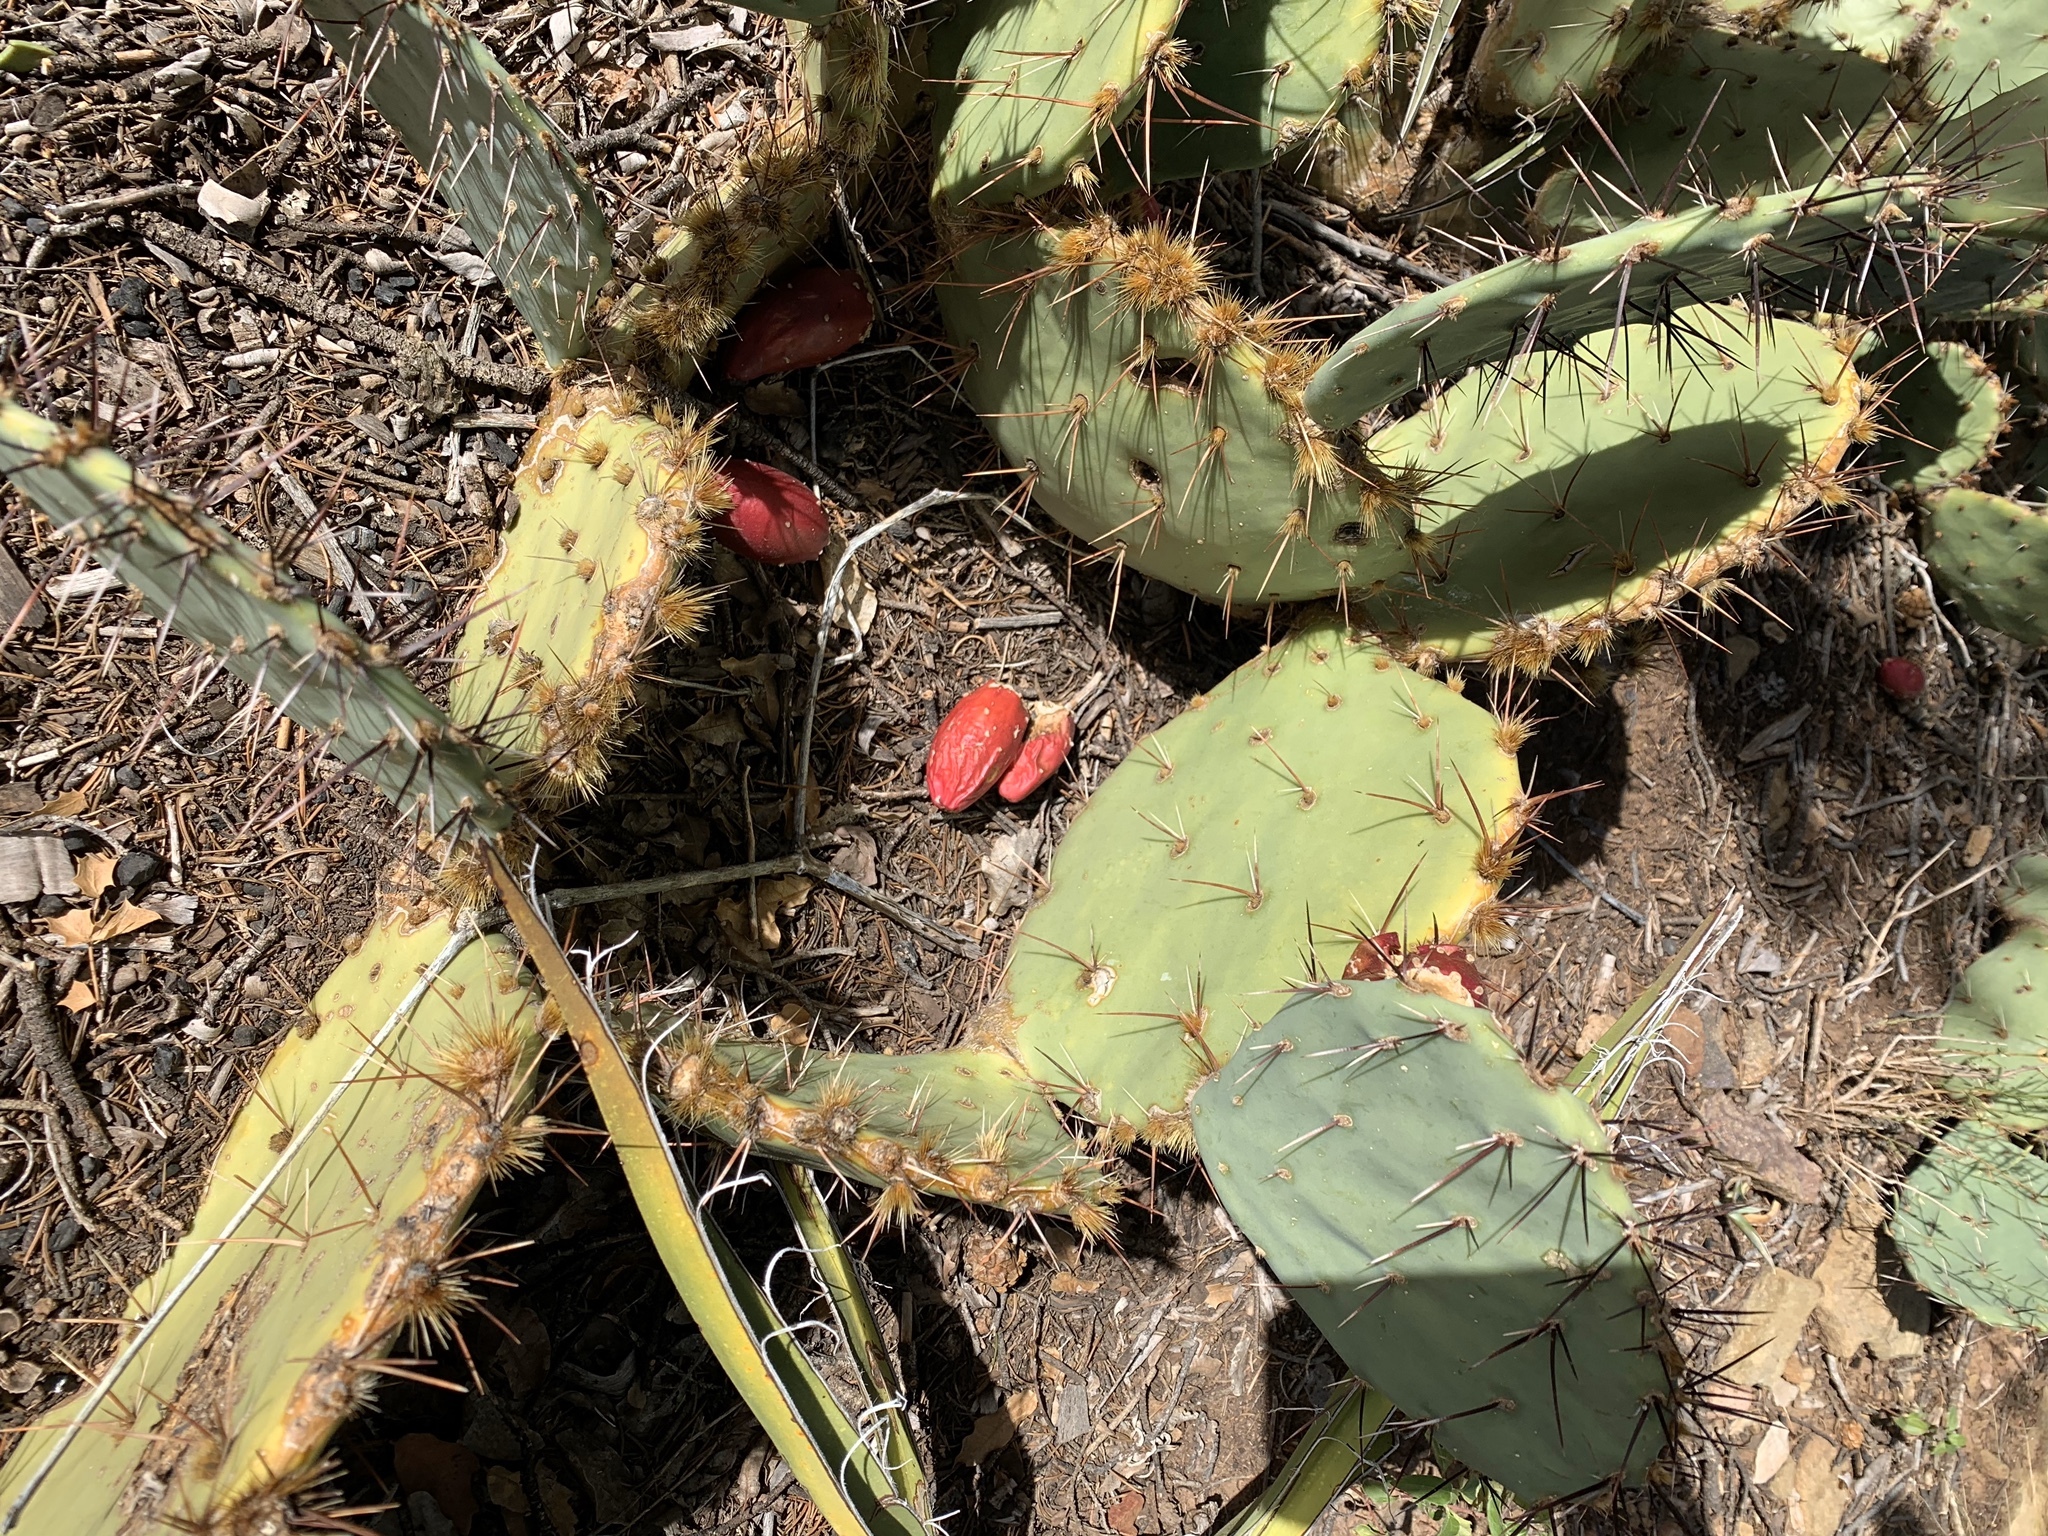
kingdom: Plantae
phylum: Tracheophyta
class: Magnoliopsida
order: Caryophyllales
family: Cactaceae
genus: Opuntia
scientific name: Opuntia phaeacantha
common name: New mexico prickly-pear
